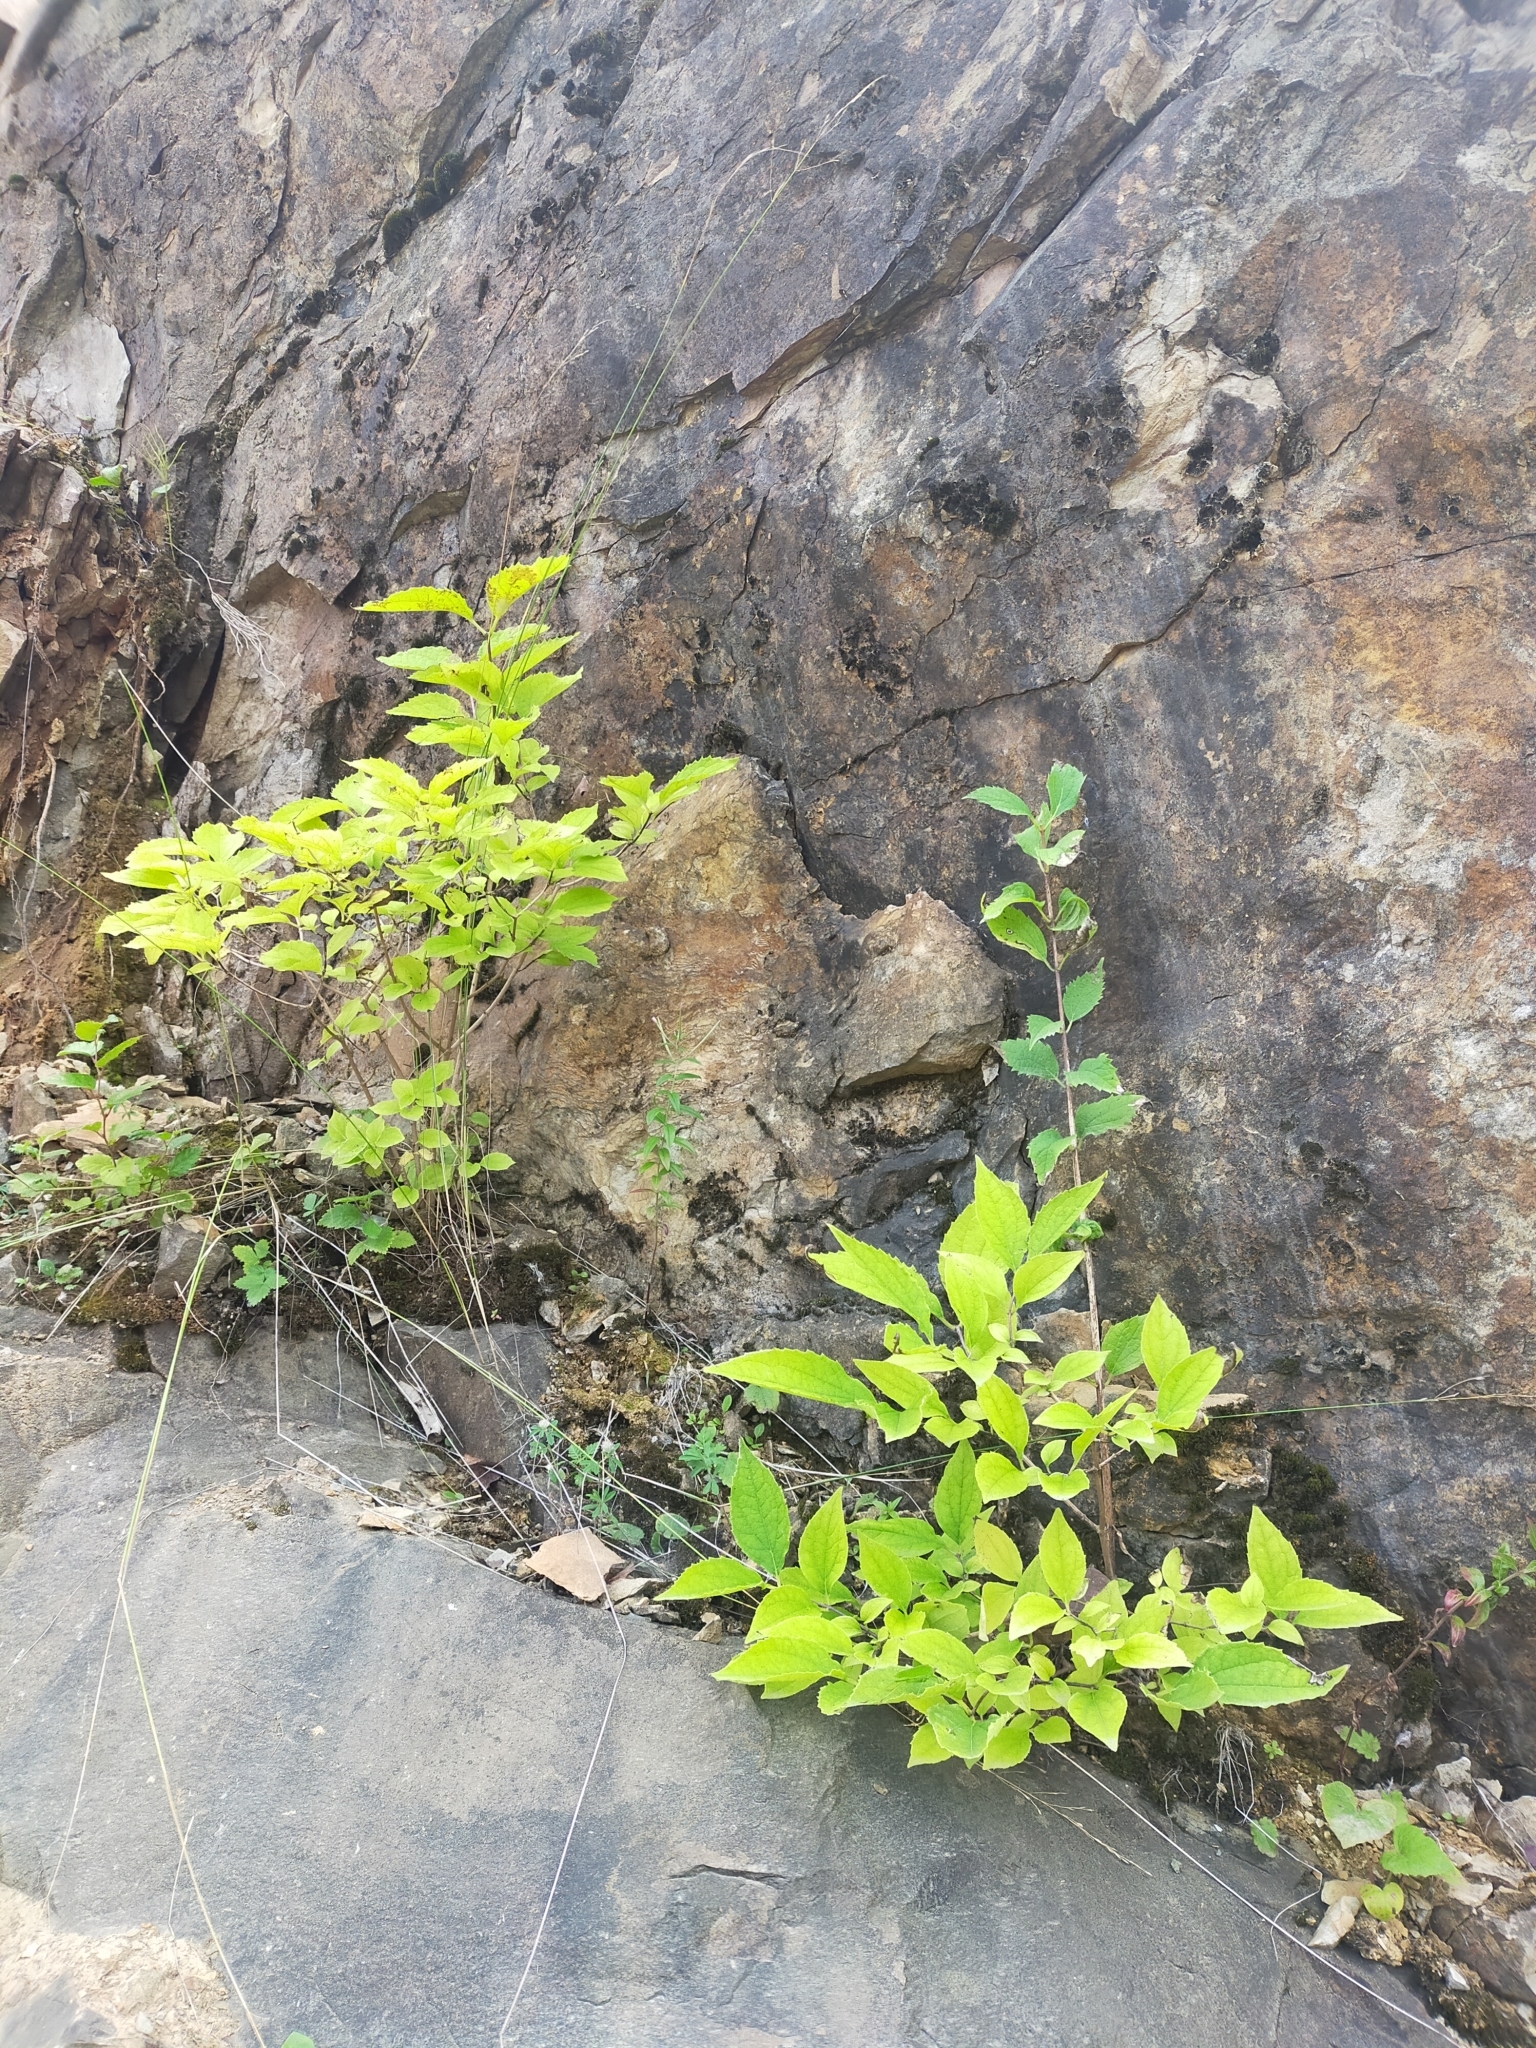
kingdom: Plantae
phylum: Tracheophyta
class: Magnoliopsida
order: Cornales
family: Hydrangeaceae
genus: Philadelphus
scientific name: Philadelphus tenuifolius
